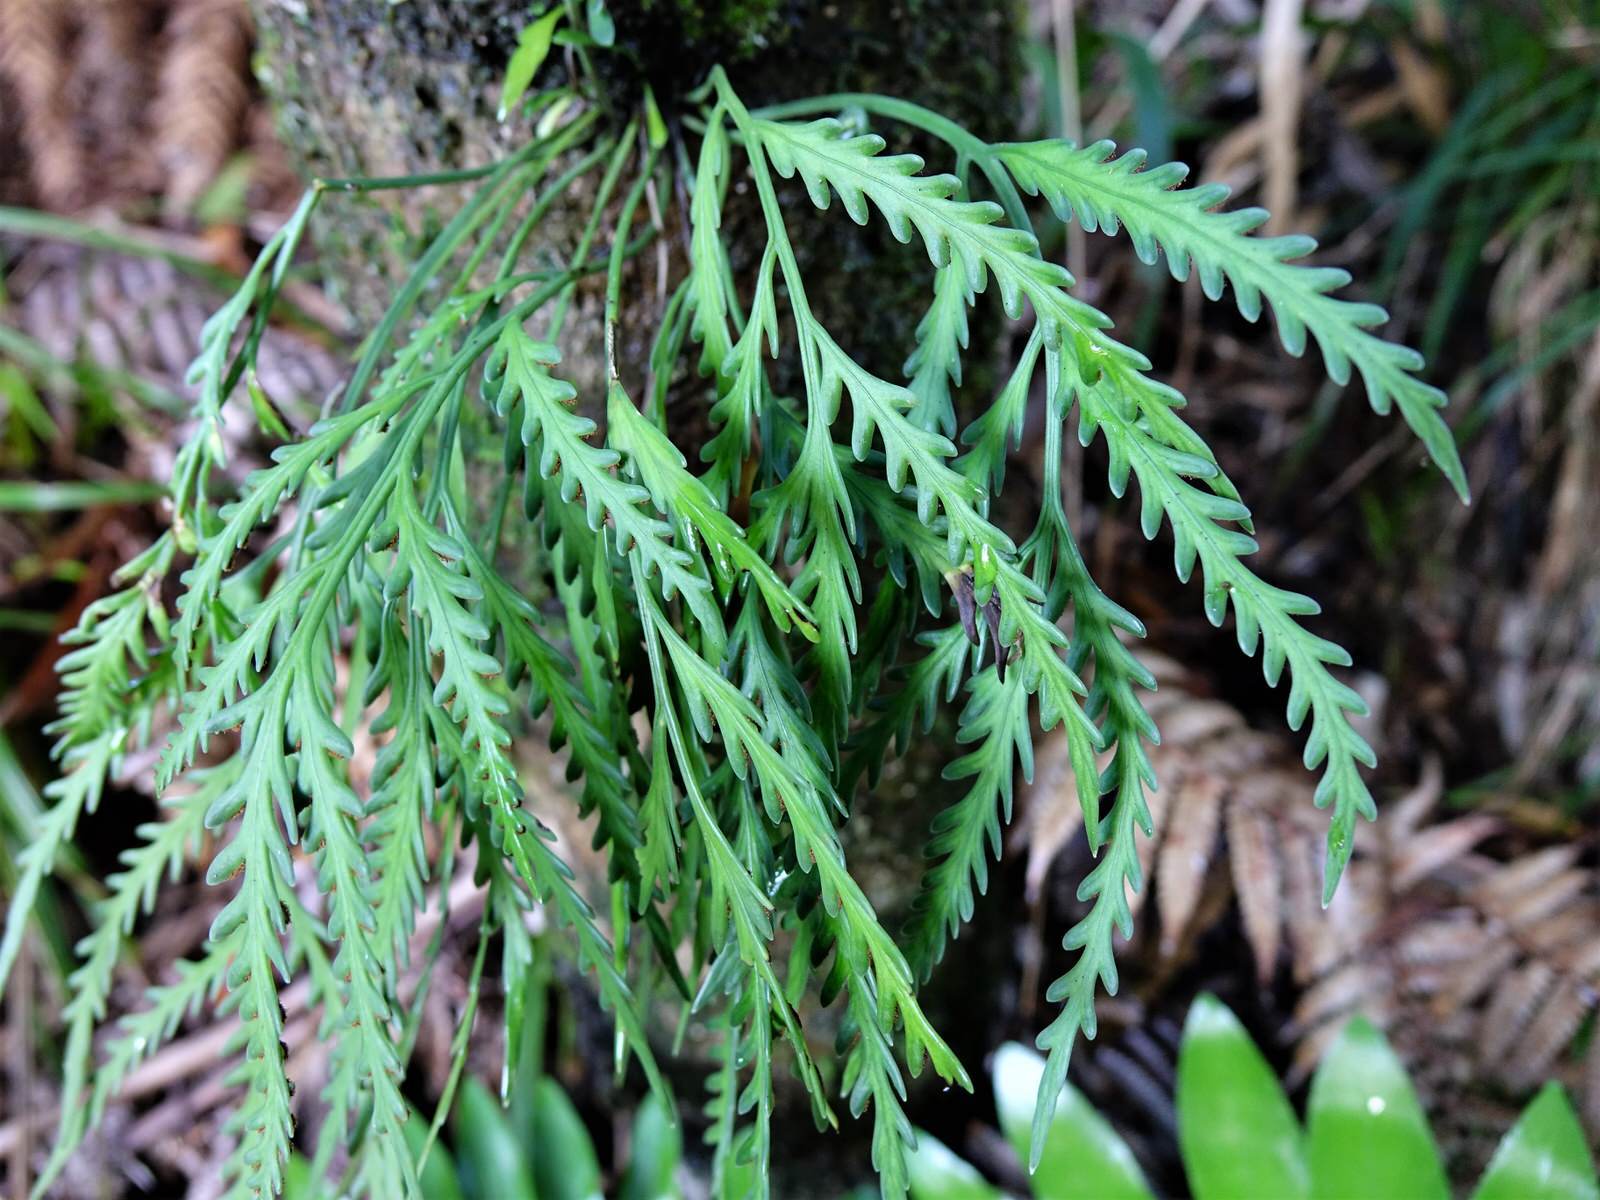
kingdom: Plantae
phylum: Tracheophyta
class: Polypodiopsida
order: Polypodiales
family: Aspleniaceae
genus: Asplenium
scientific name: Asplenium flaccidum
